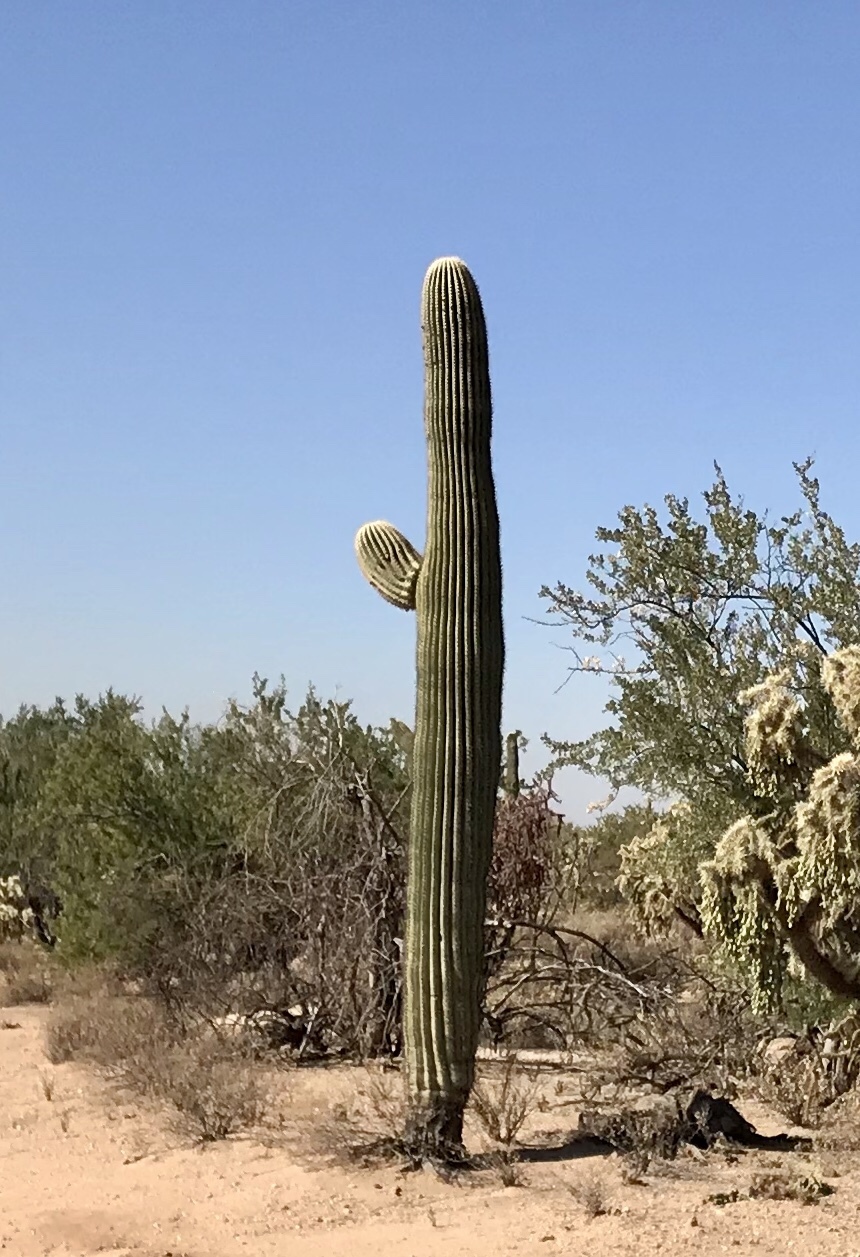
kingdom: Plantae
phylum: Tracheophyta
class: Magnoliopsida
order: Caryophyllales
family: Cactaceae
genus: Carnegiea
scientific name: Carnegiea gigantea
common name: Saguaro
